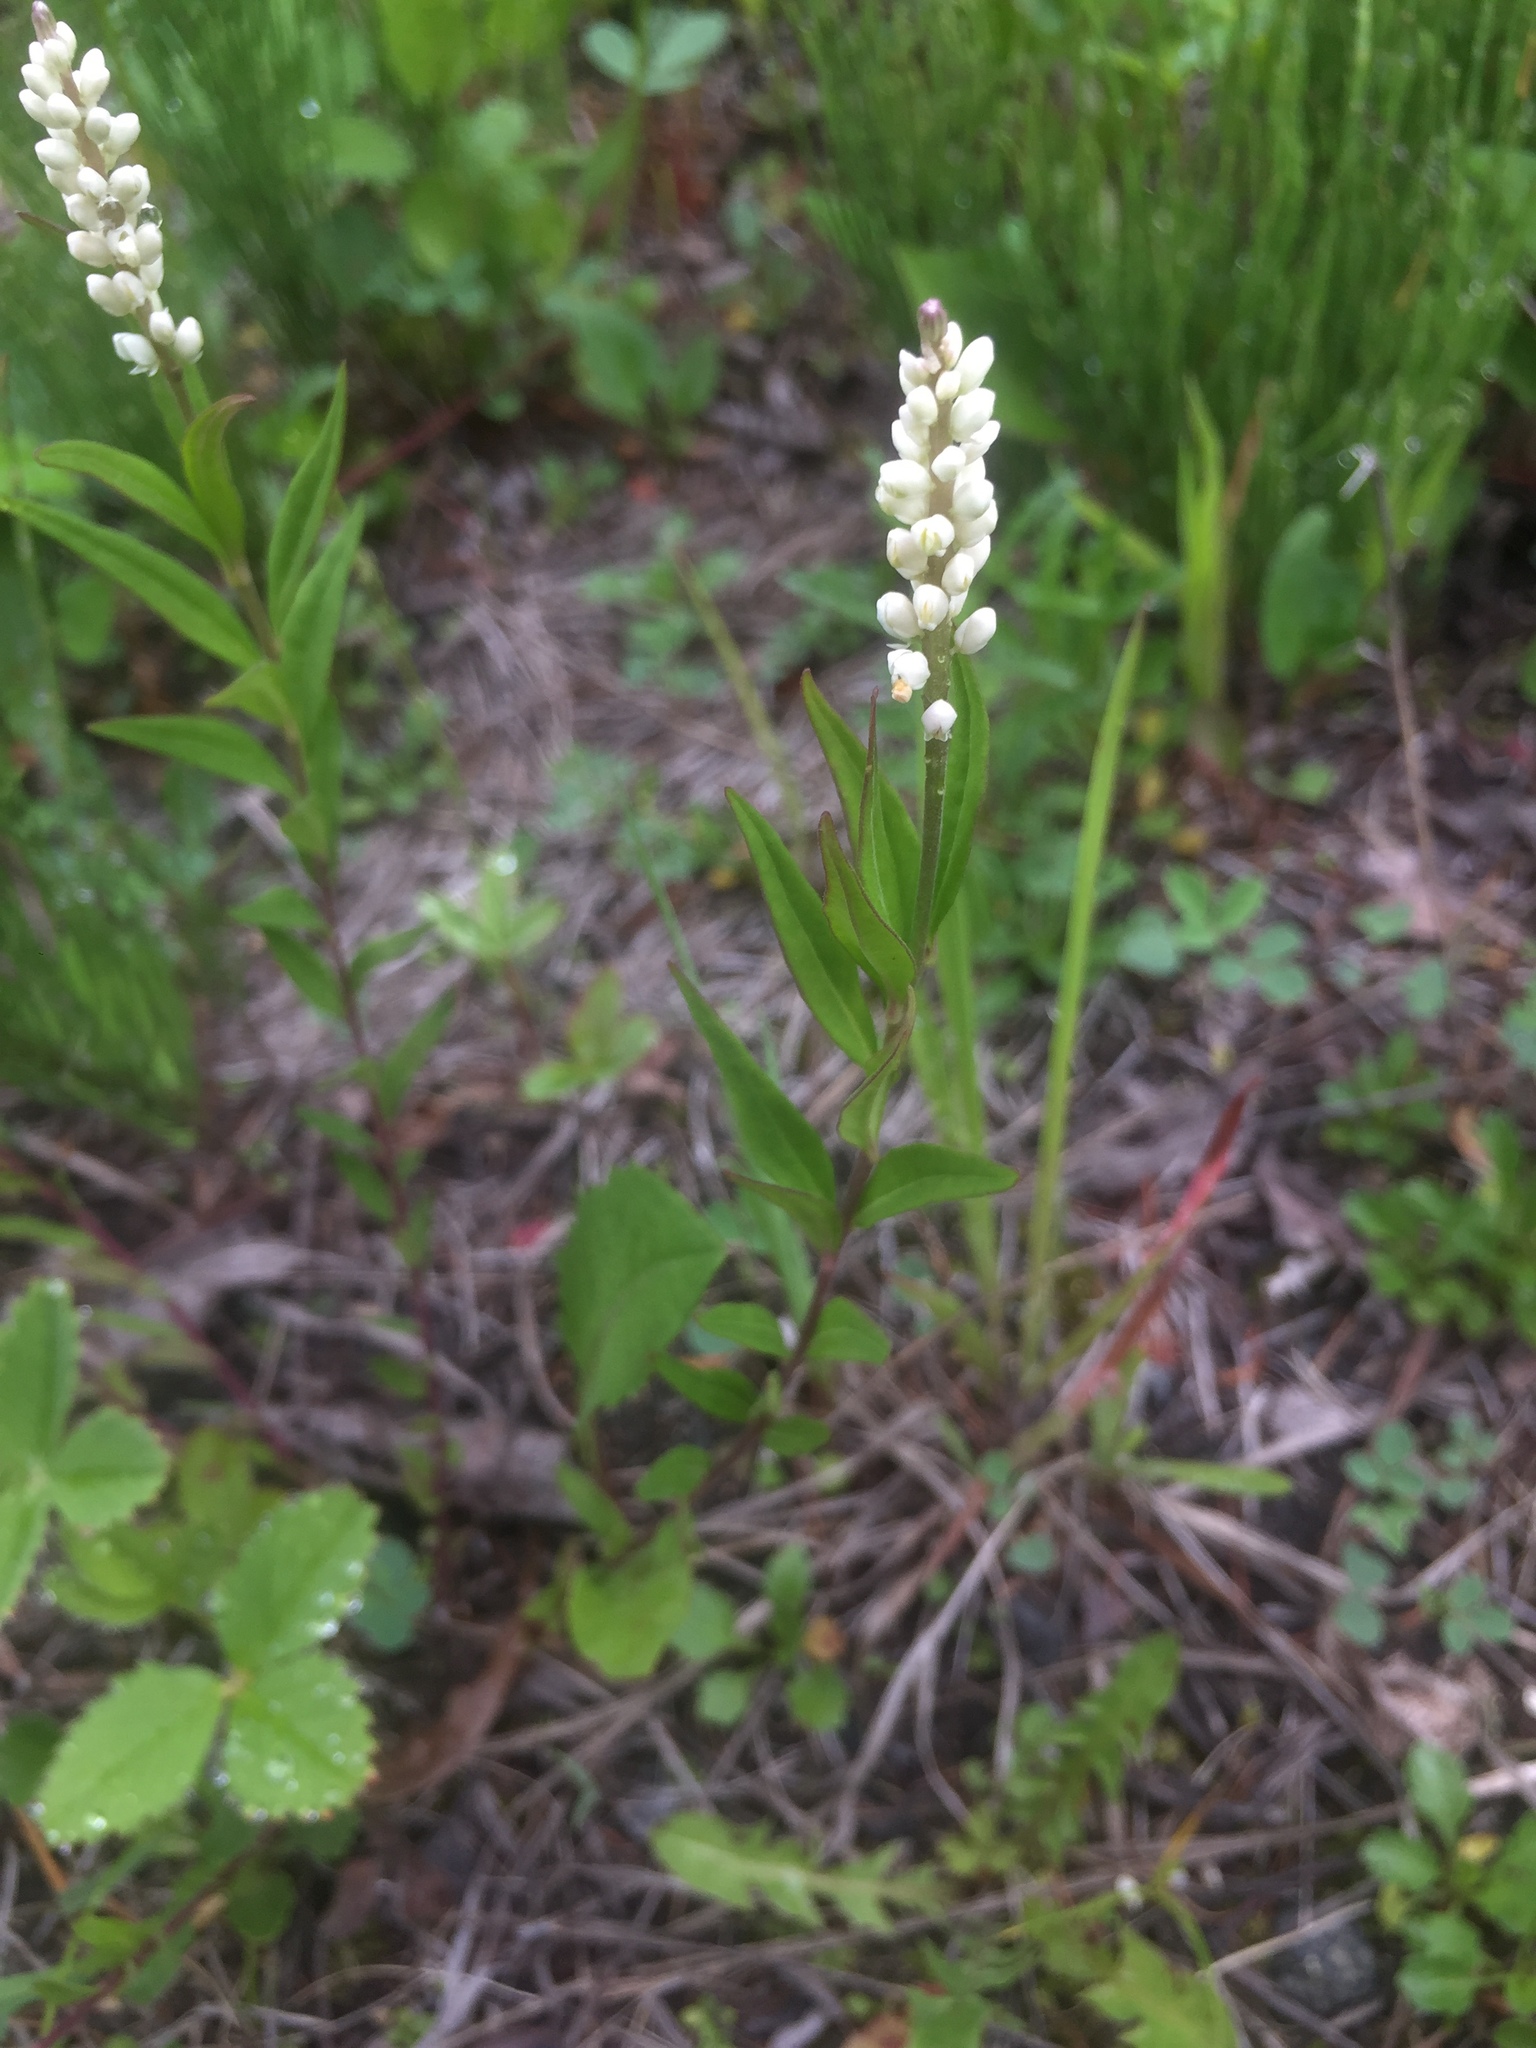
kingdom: Plantae
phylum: Tracheophyta
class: Magnoliopsida
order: Fabales
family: Polygalaceae
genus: Polygala
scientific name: Polygala senega
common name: Seneca snakeroot
